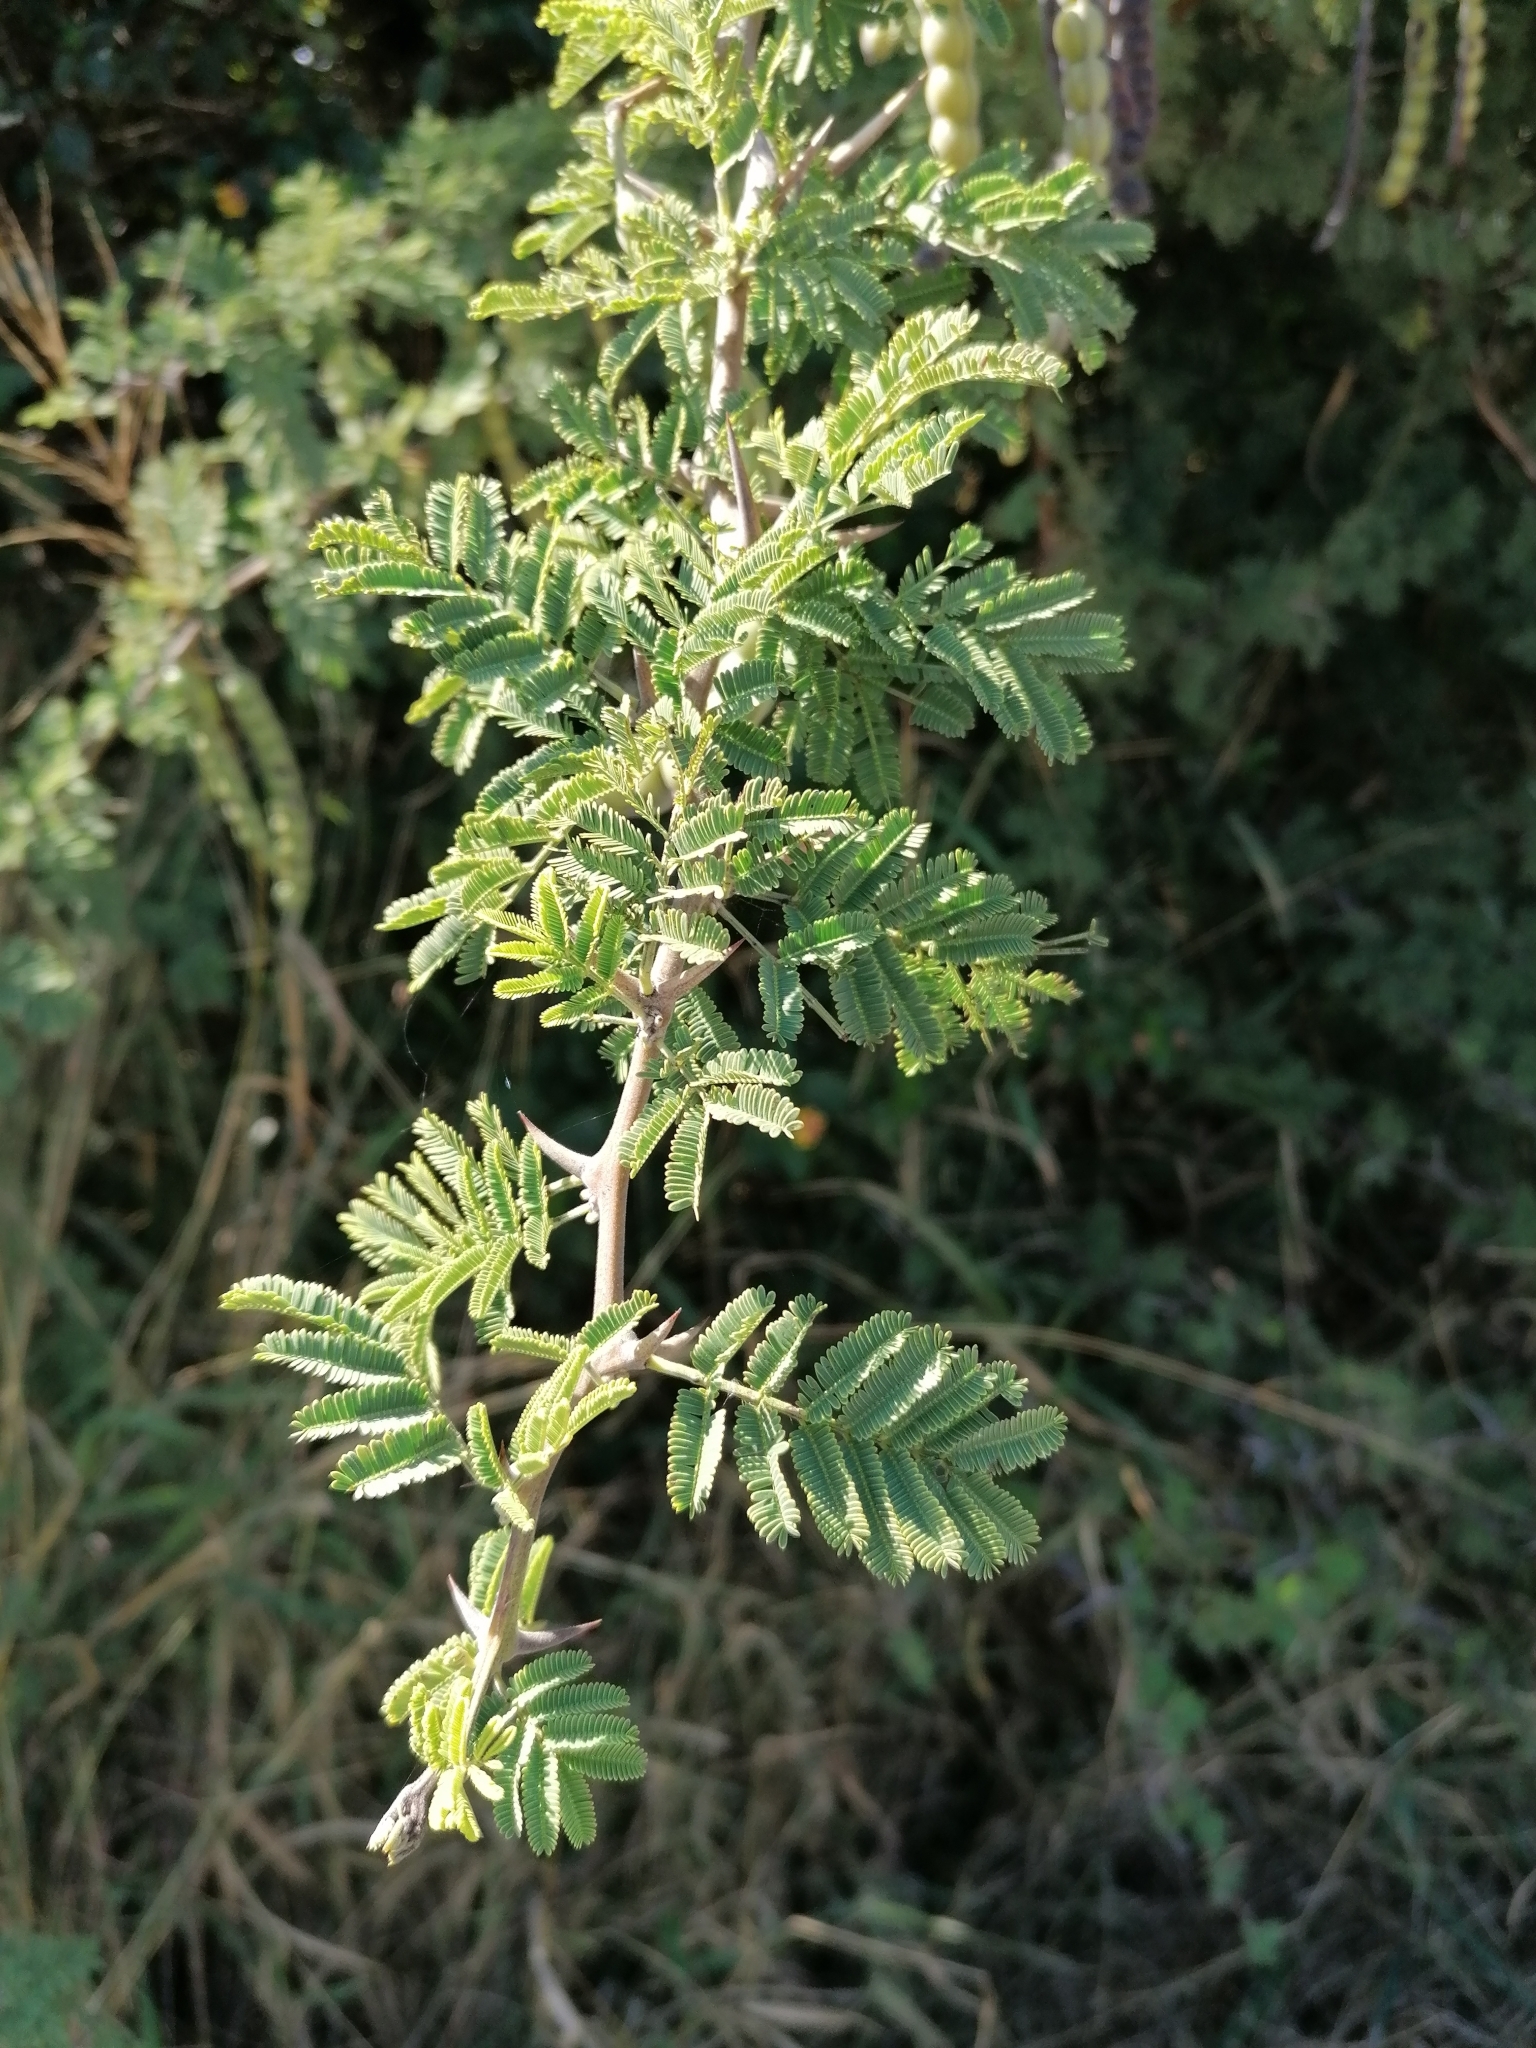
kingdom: Plantae
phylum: Tracheophyta
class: Magnoliopsida
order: Fabales
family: Fabaceae
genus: Vachellia
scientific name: Vachellia nilotica
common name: Arabic gumtree
